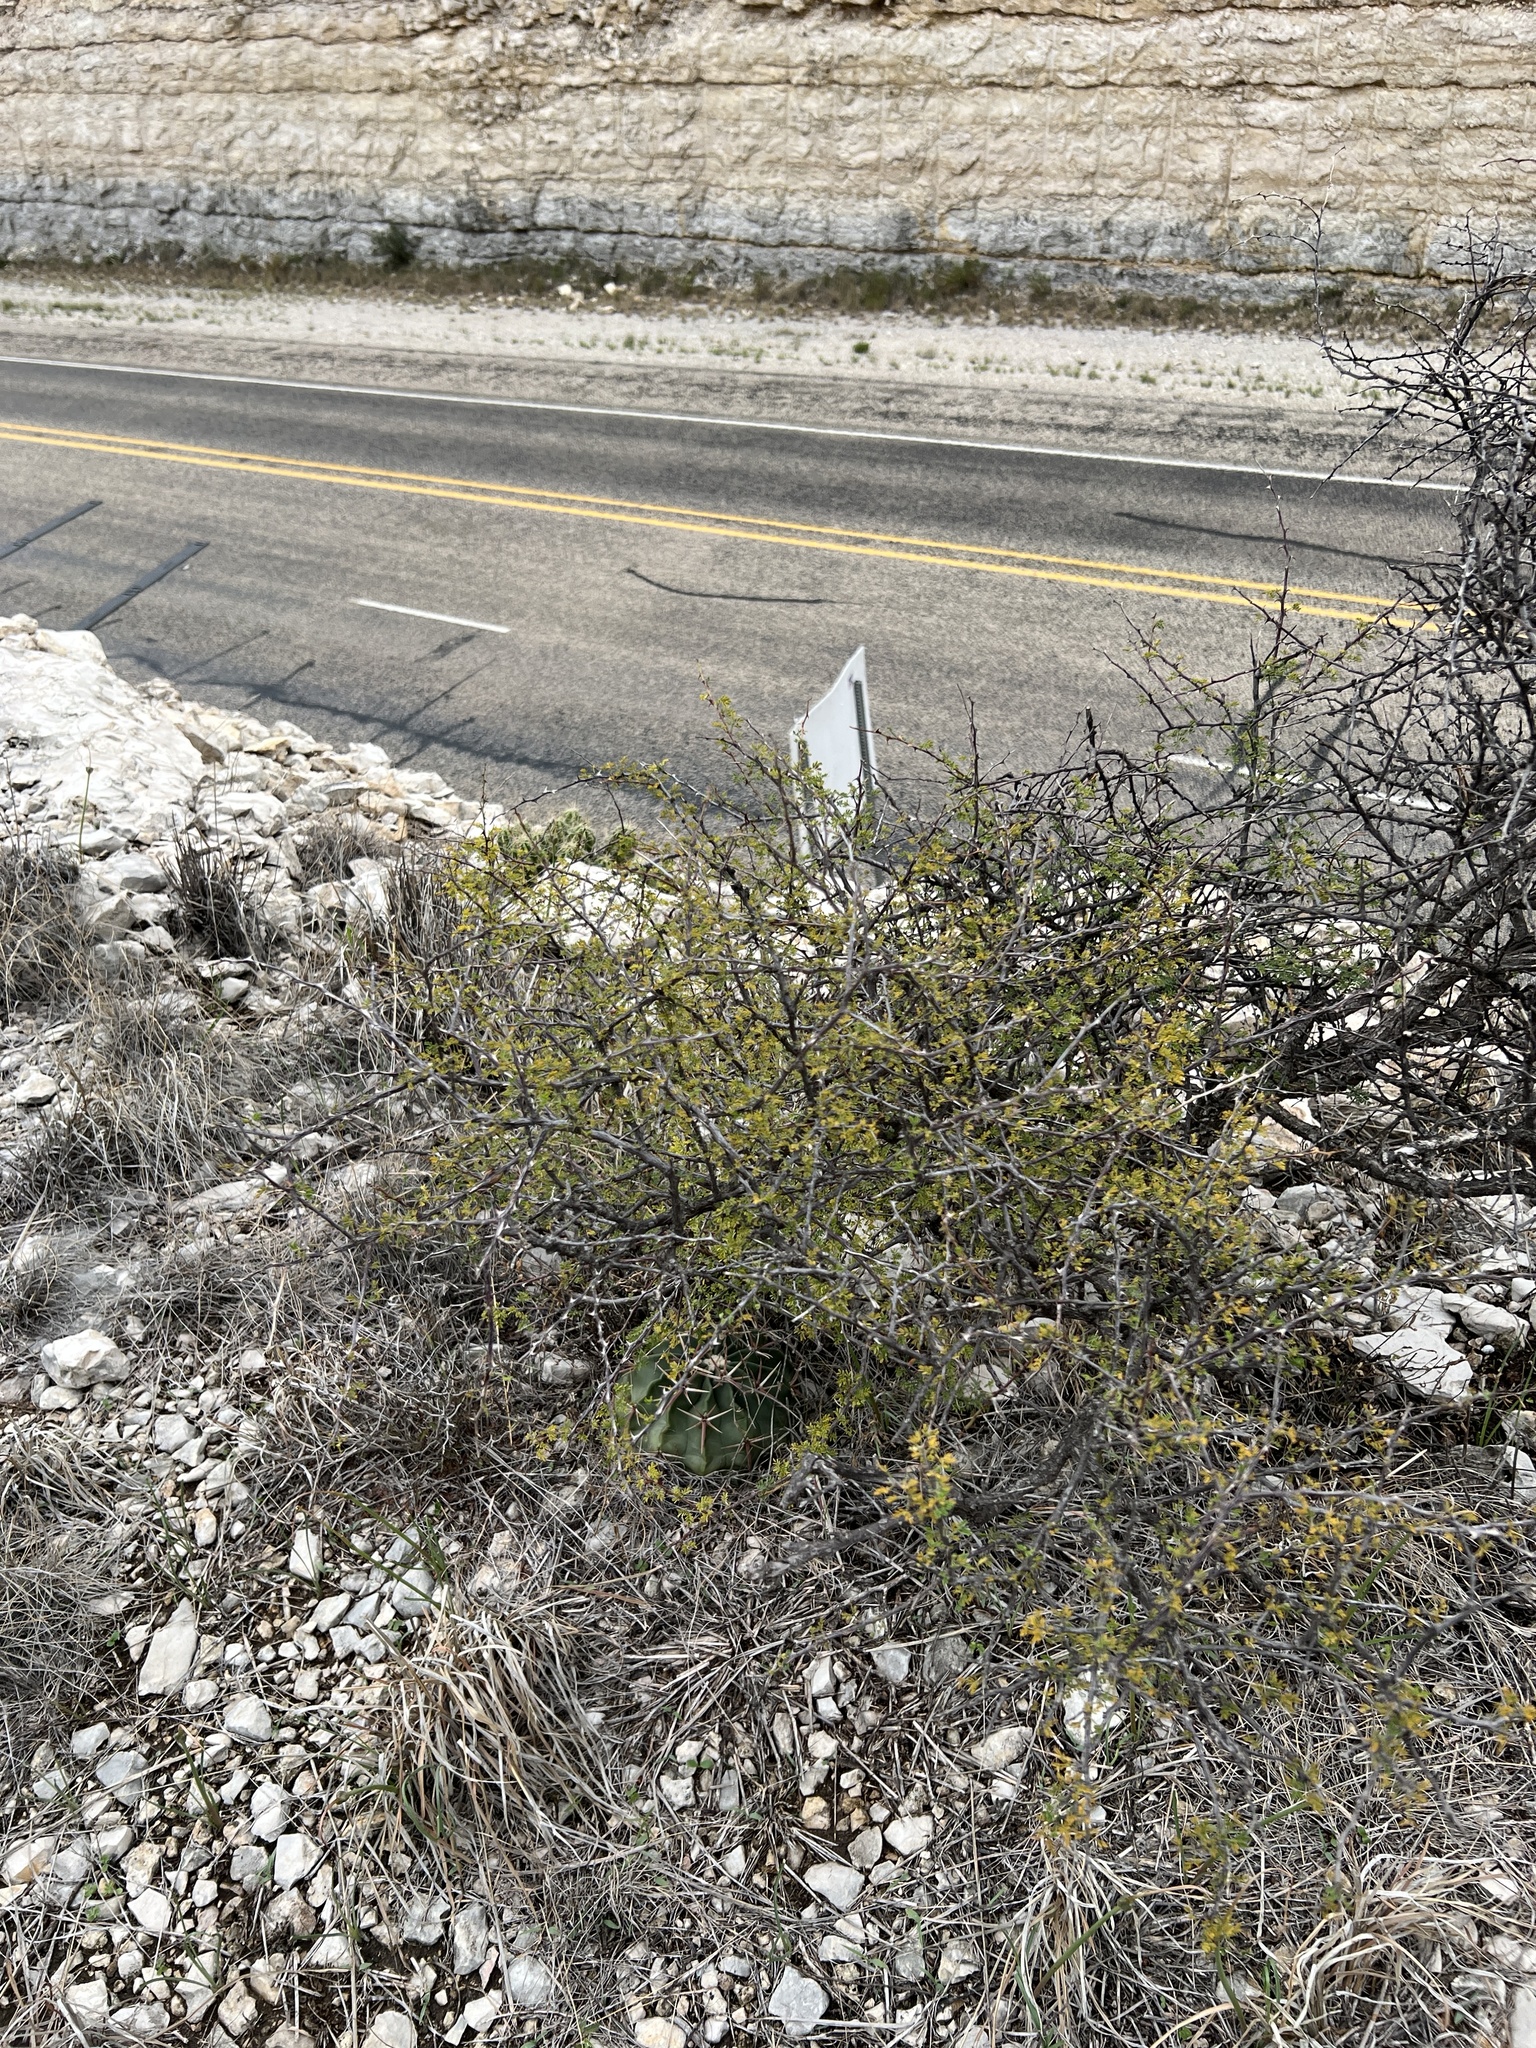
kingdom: Plantae
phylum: Tracheophyta
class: Magnoliopsida
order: Fabales
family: Fabaceae
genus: Senegalia
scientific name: Senegalia greggii
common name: Texas-mimosa
